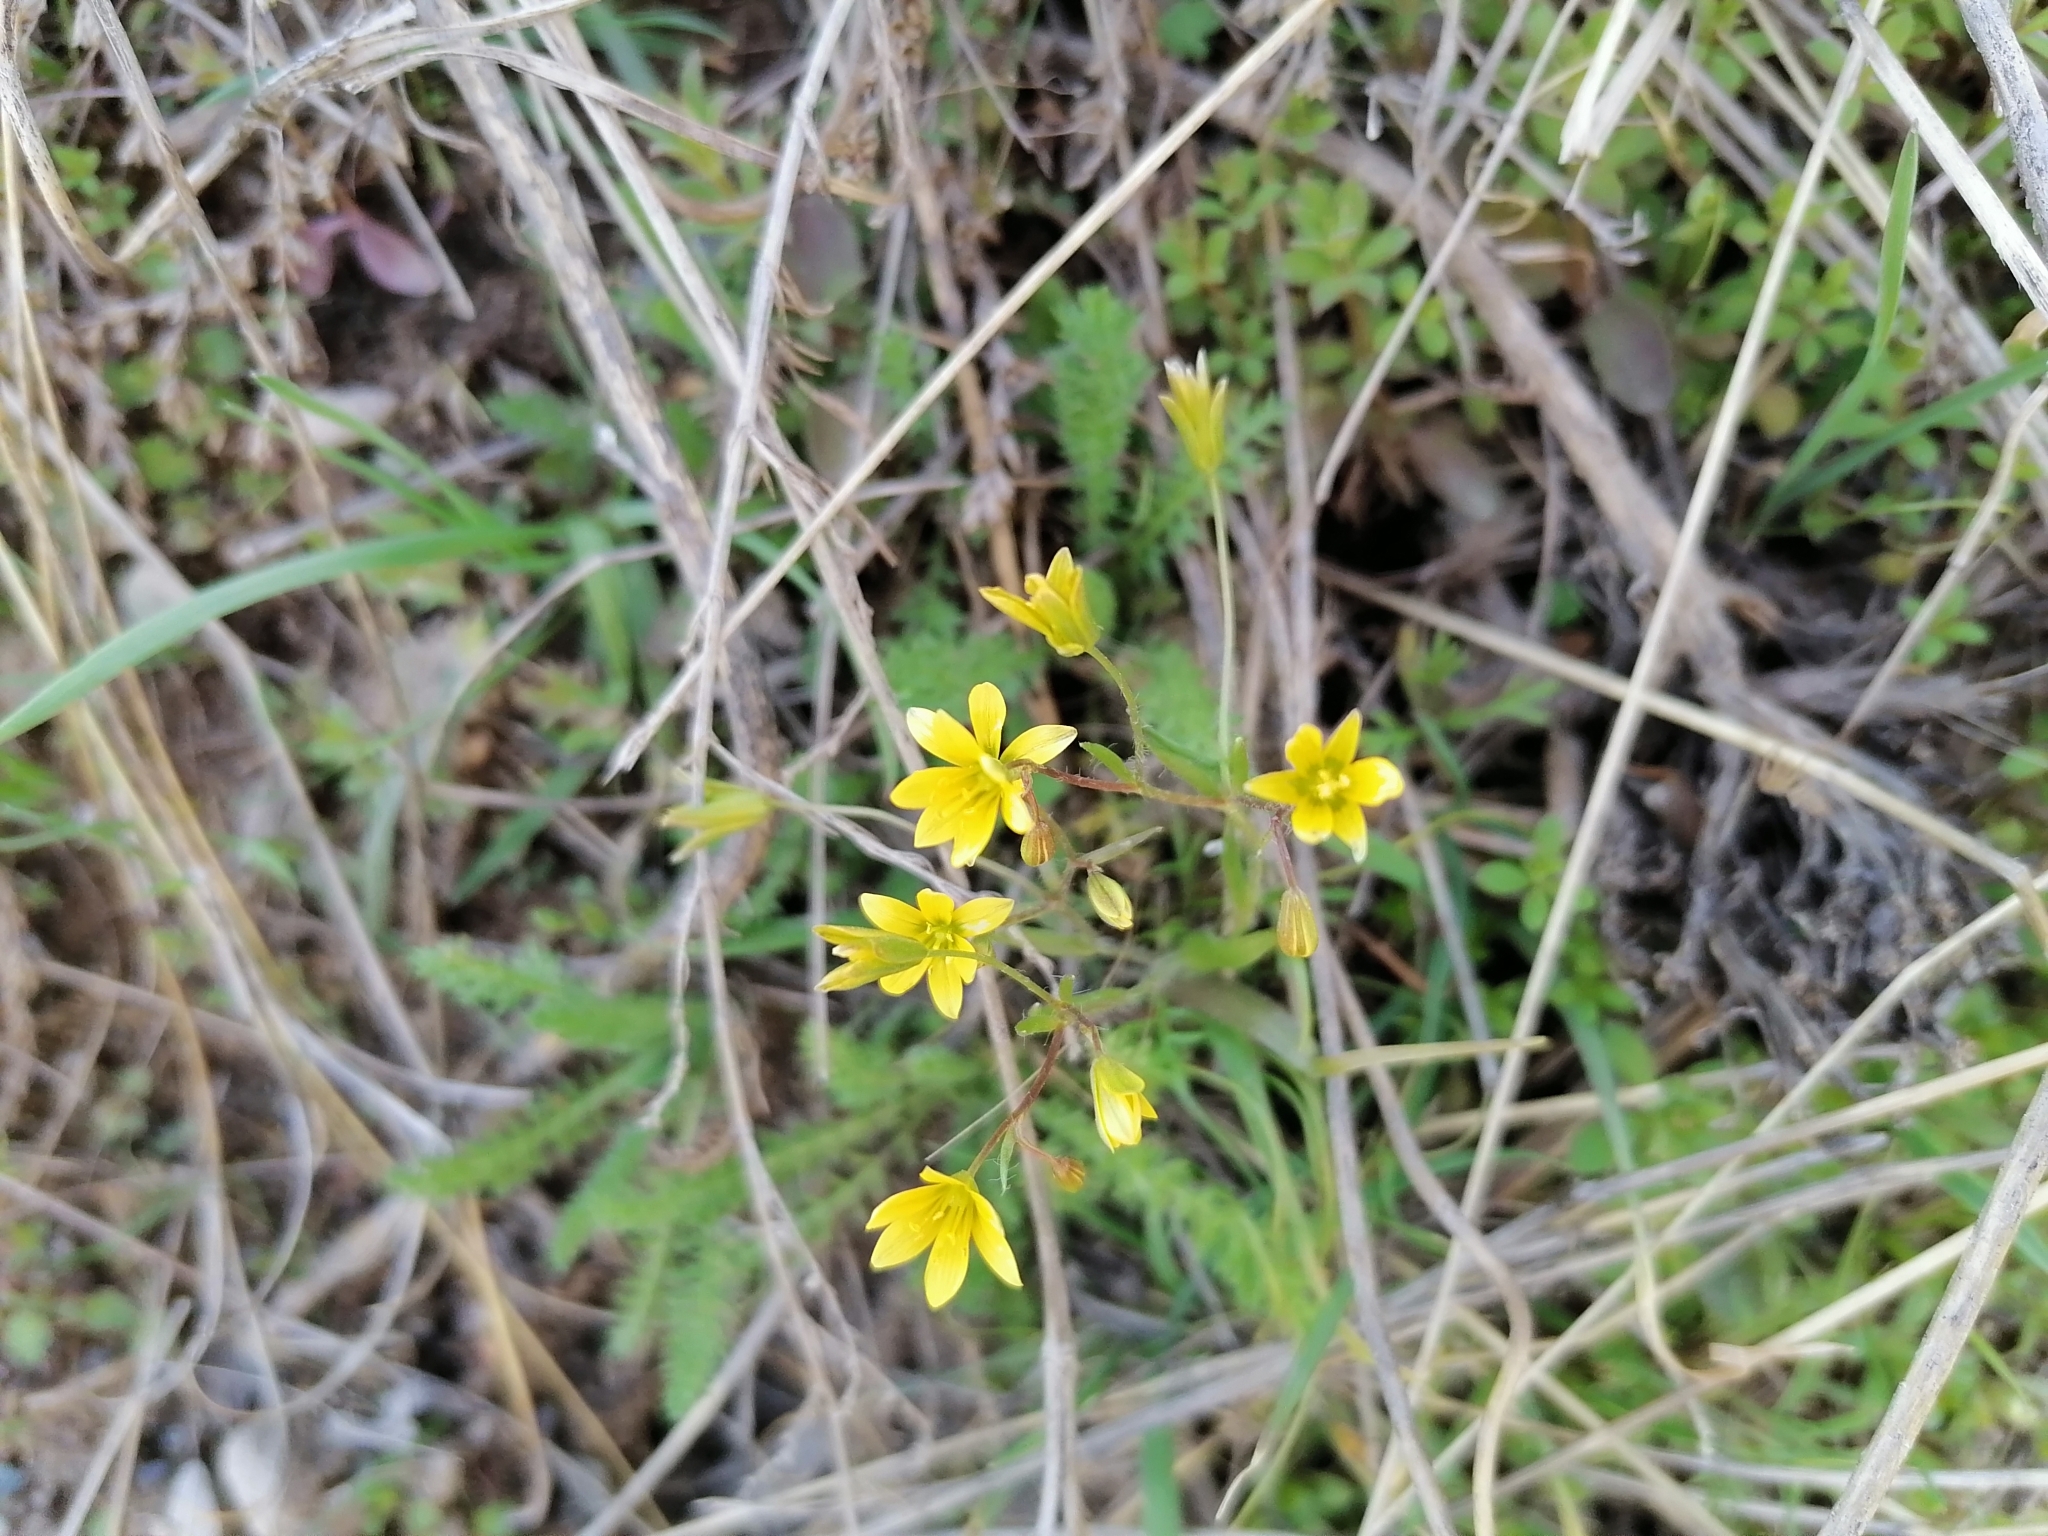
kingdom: Plantae
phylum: Tracheophyta
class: Liliopsida
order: Liliales
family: Liliaceae
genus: Gagea
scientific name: Gagea tenera
